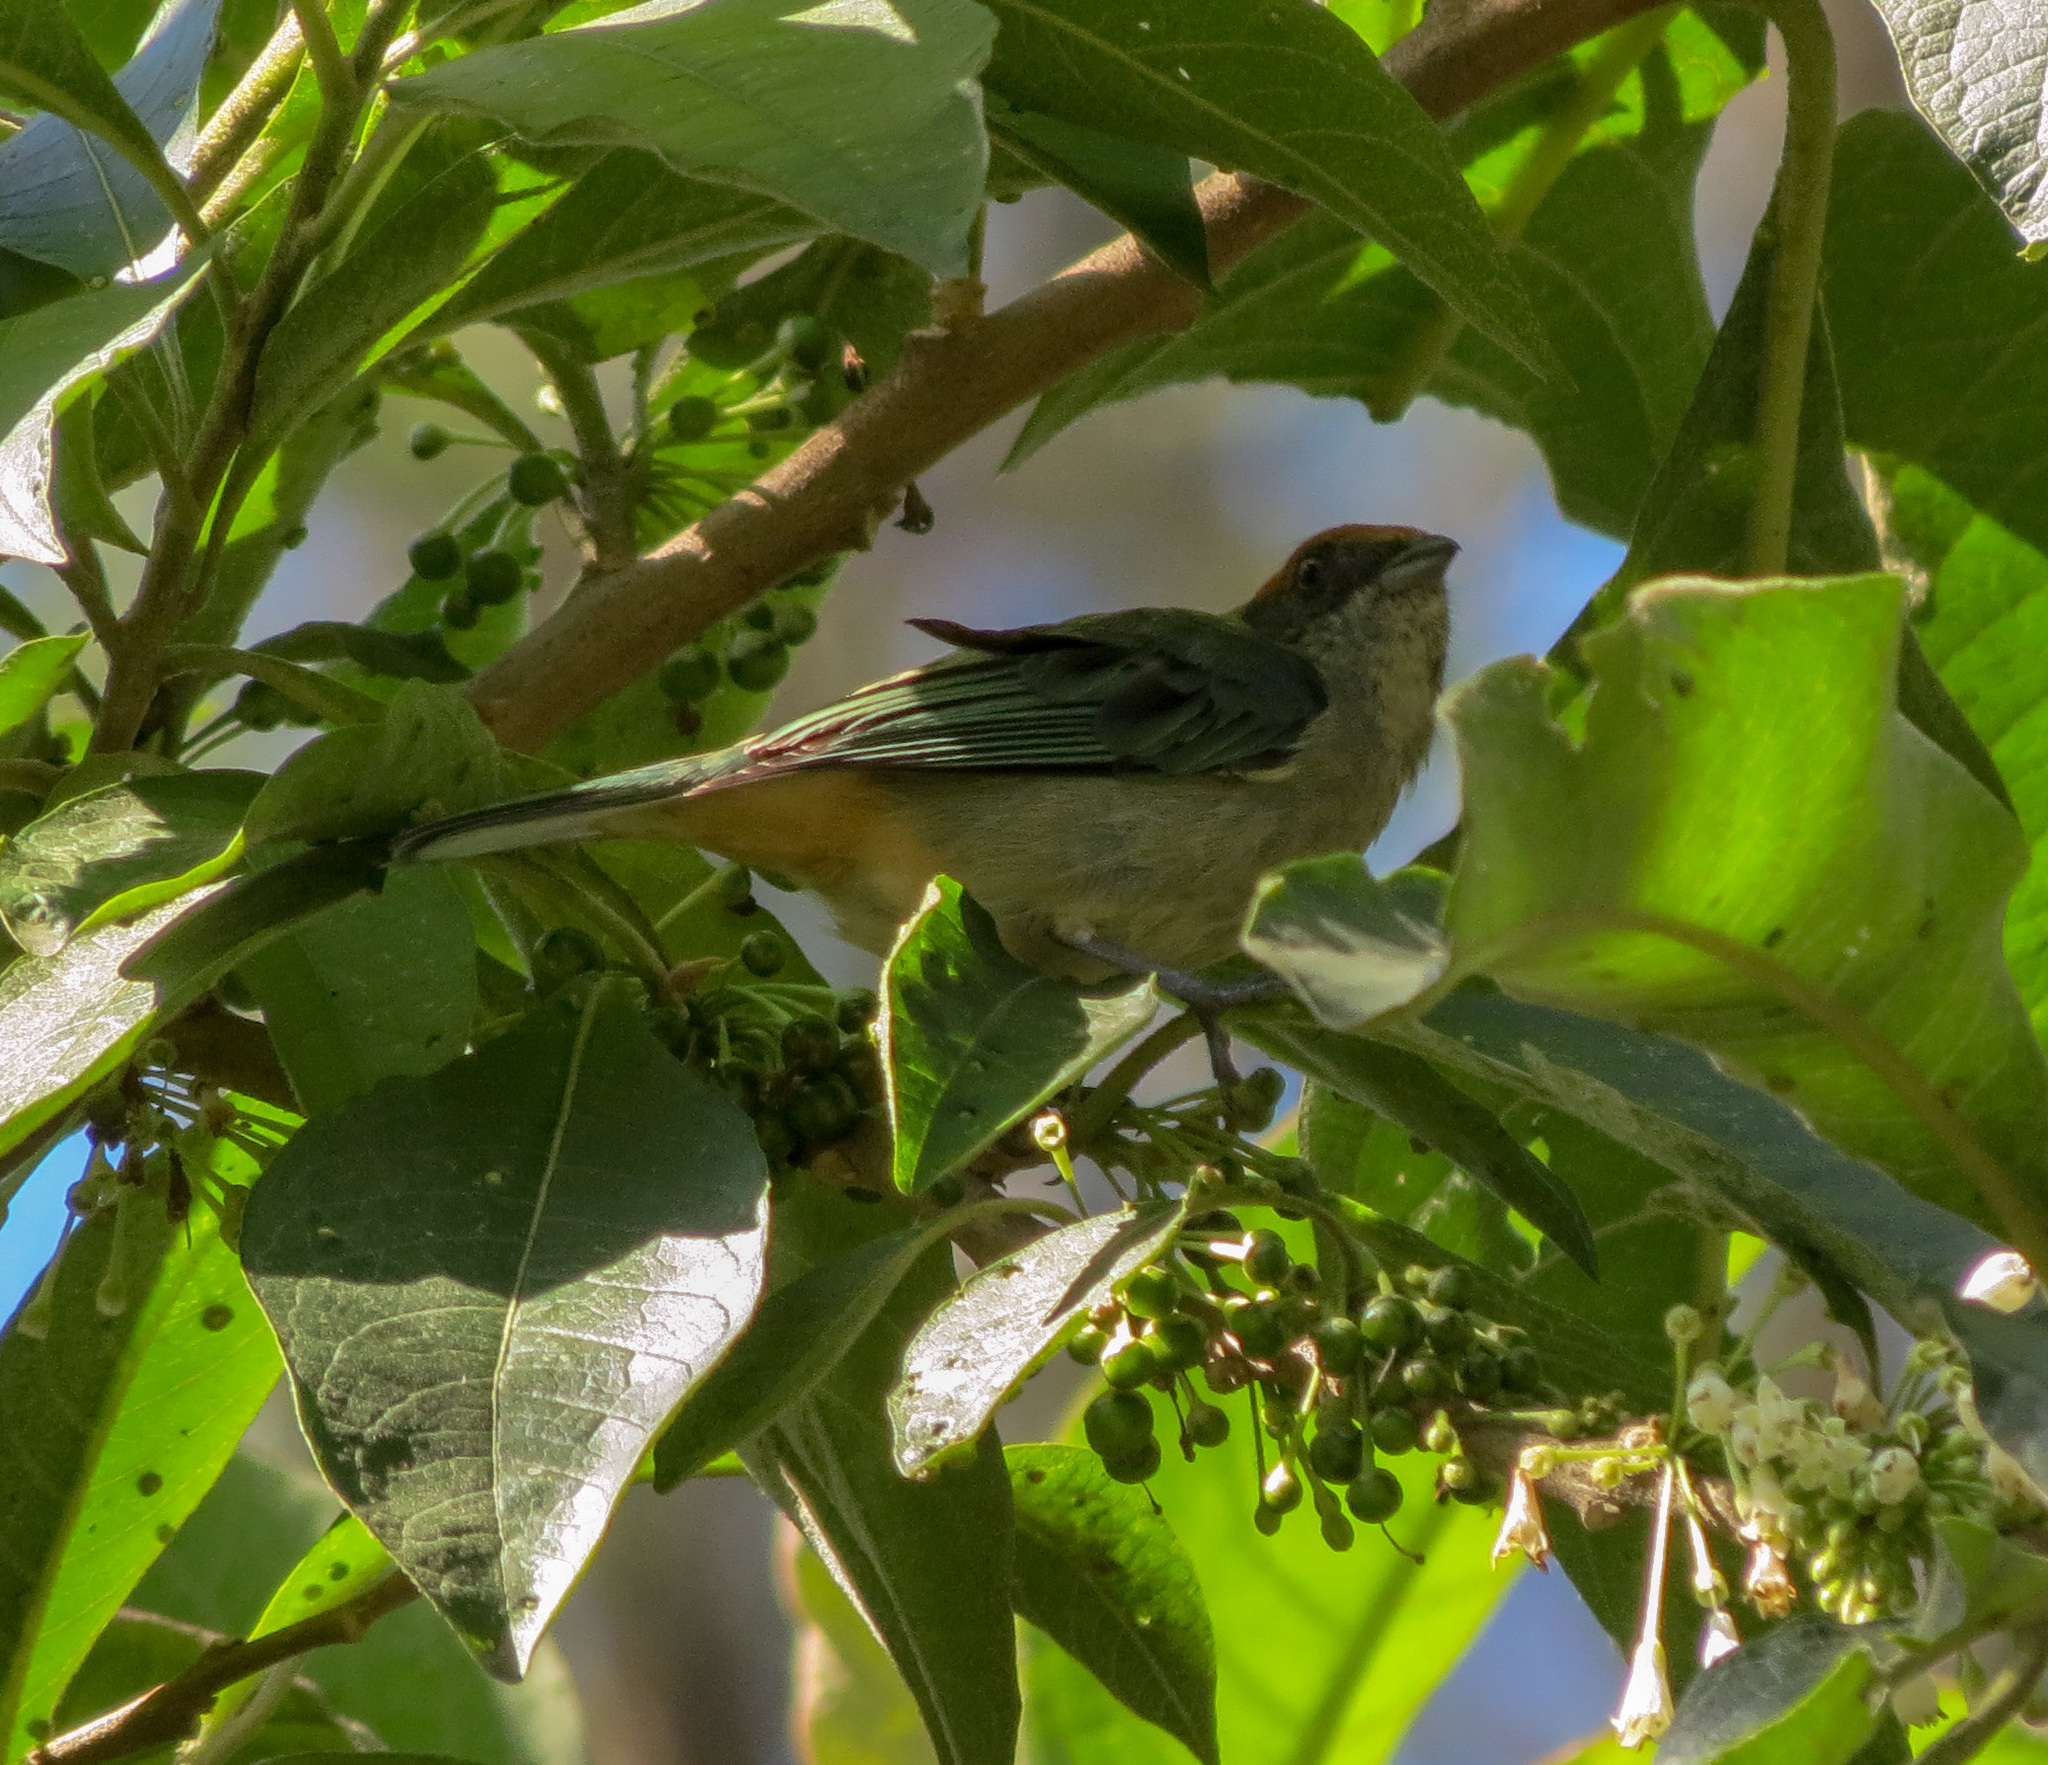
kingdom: Animalia
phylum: Chordata
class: Aves
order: Passeriformes
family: Thraupidae
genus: Stilpnia
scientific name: Stilpnia vitriolina
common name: Scrub tanager
